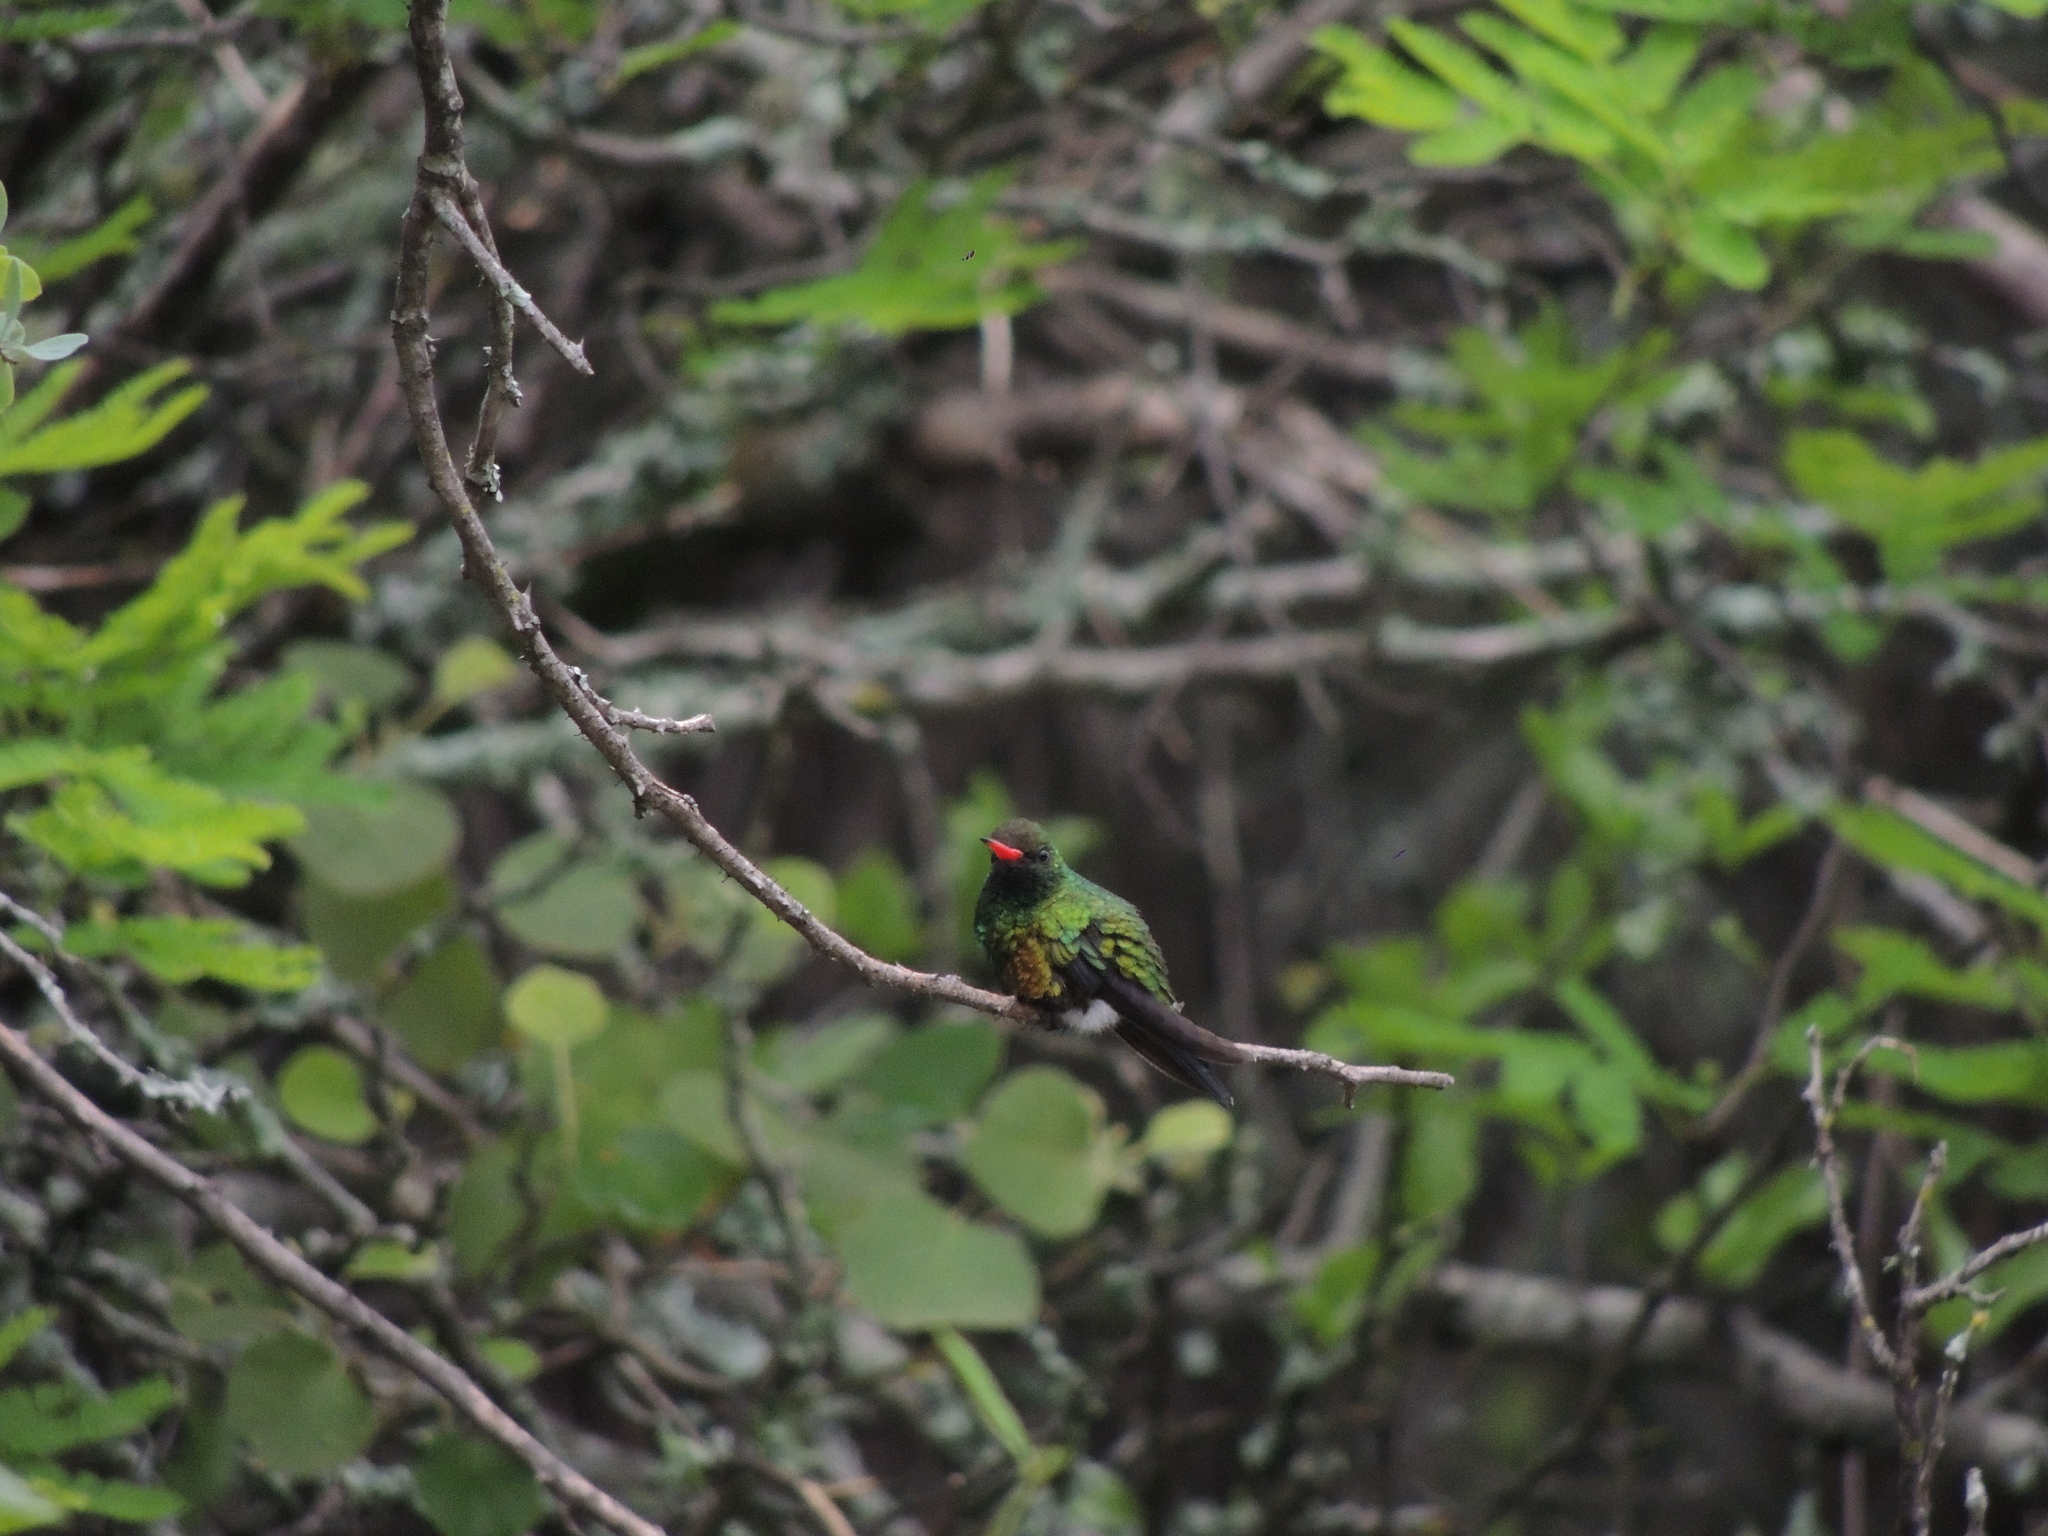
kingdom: Animalia
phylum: Chordata
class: Aves
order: Apodiformes
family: Trochilidae
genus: Chlorostilbon
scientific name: Chlorostilbon lucidus
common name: Glittering-bellied emerald
